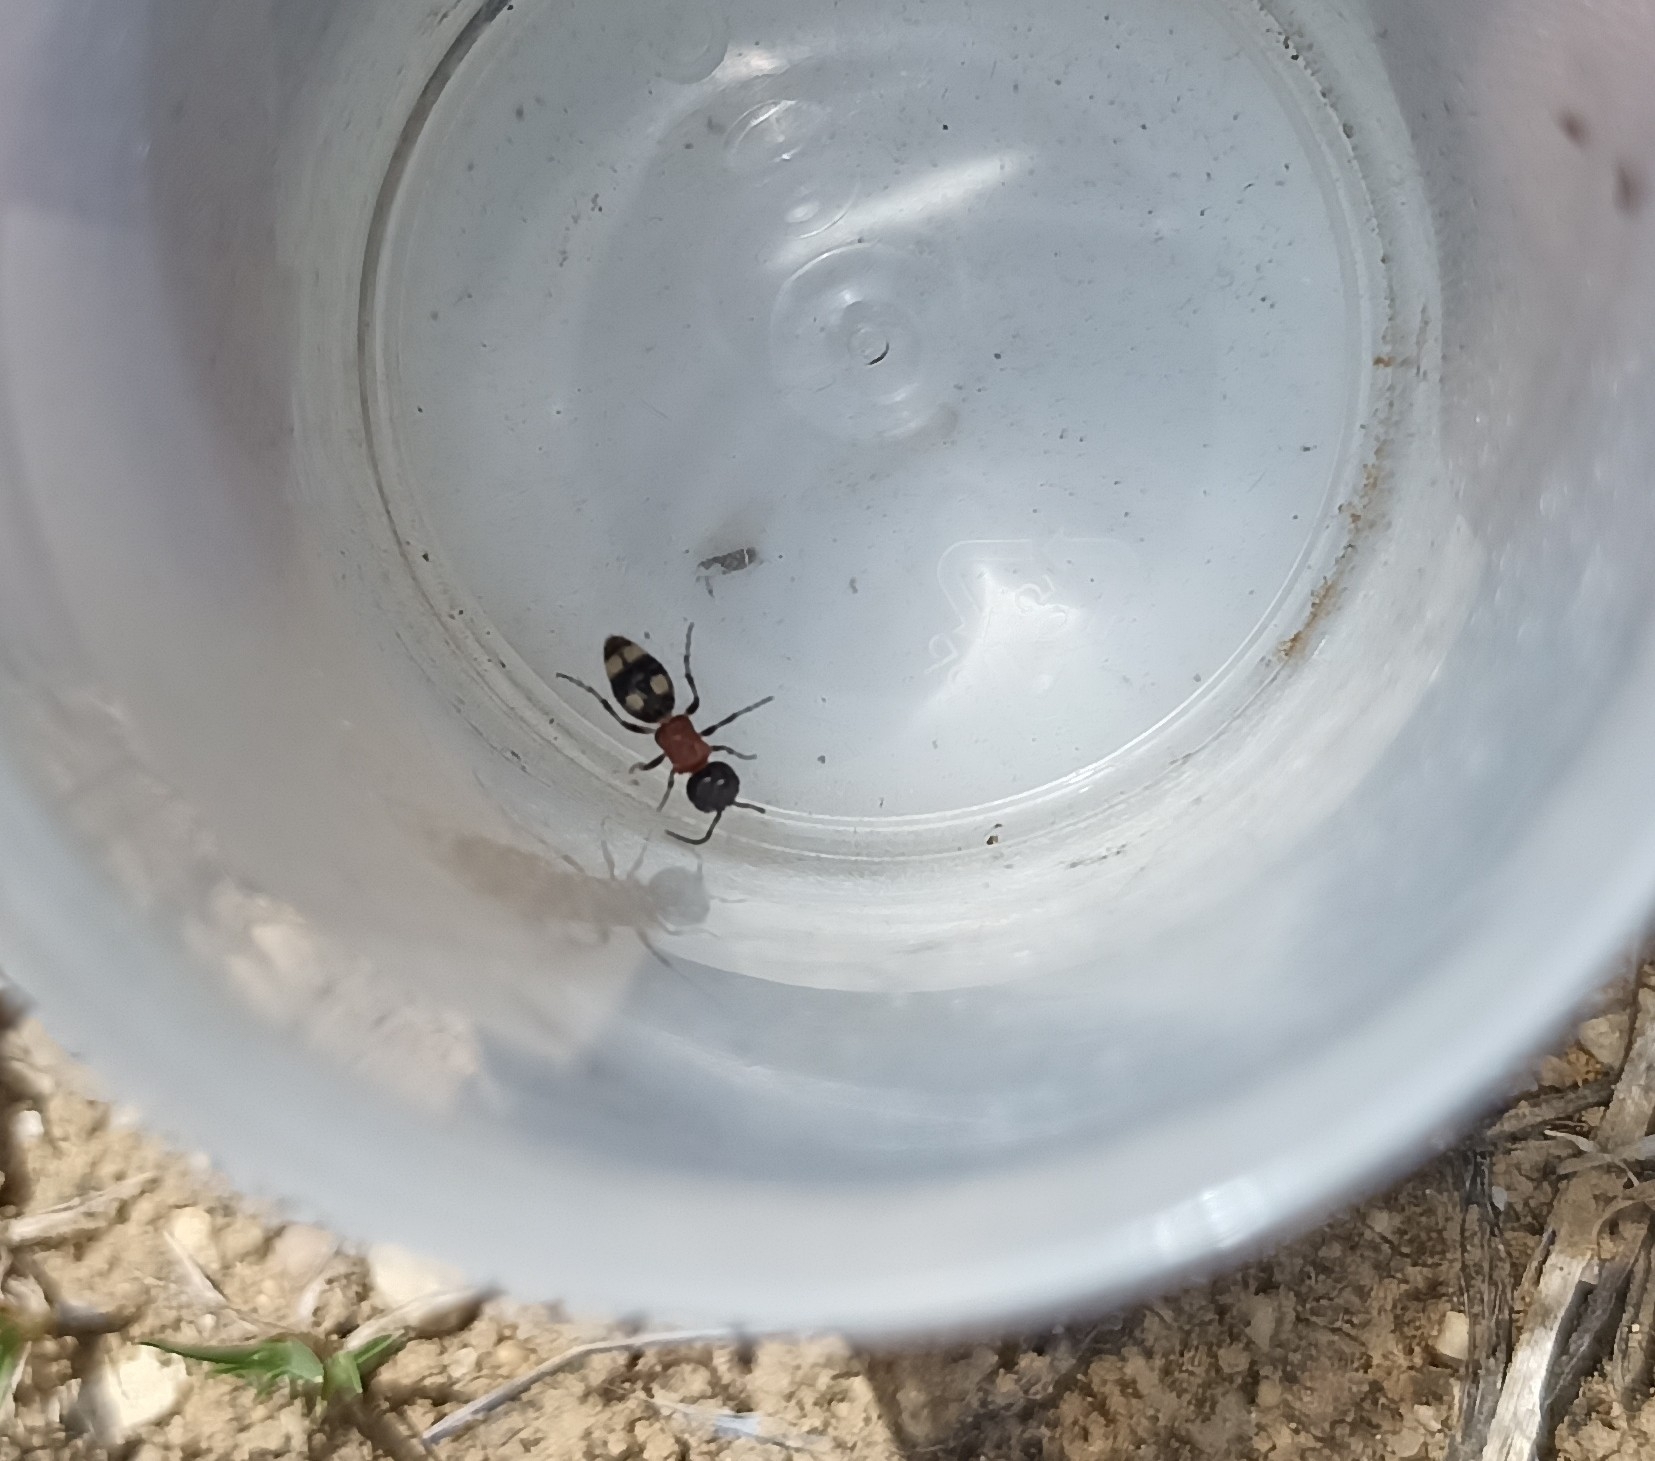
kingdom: Animalia
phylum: Arthropoda
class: Insecta
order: Hymenoptera
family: Mutillidae
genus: Blakeius
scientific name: Blakeius bipunctatus
